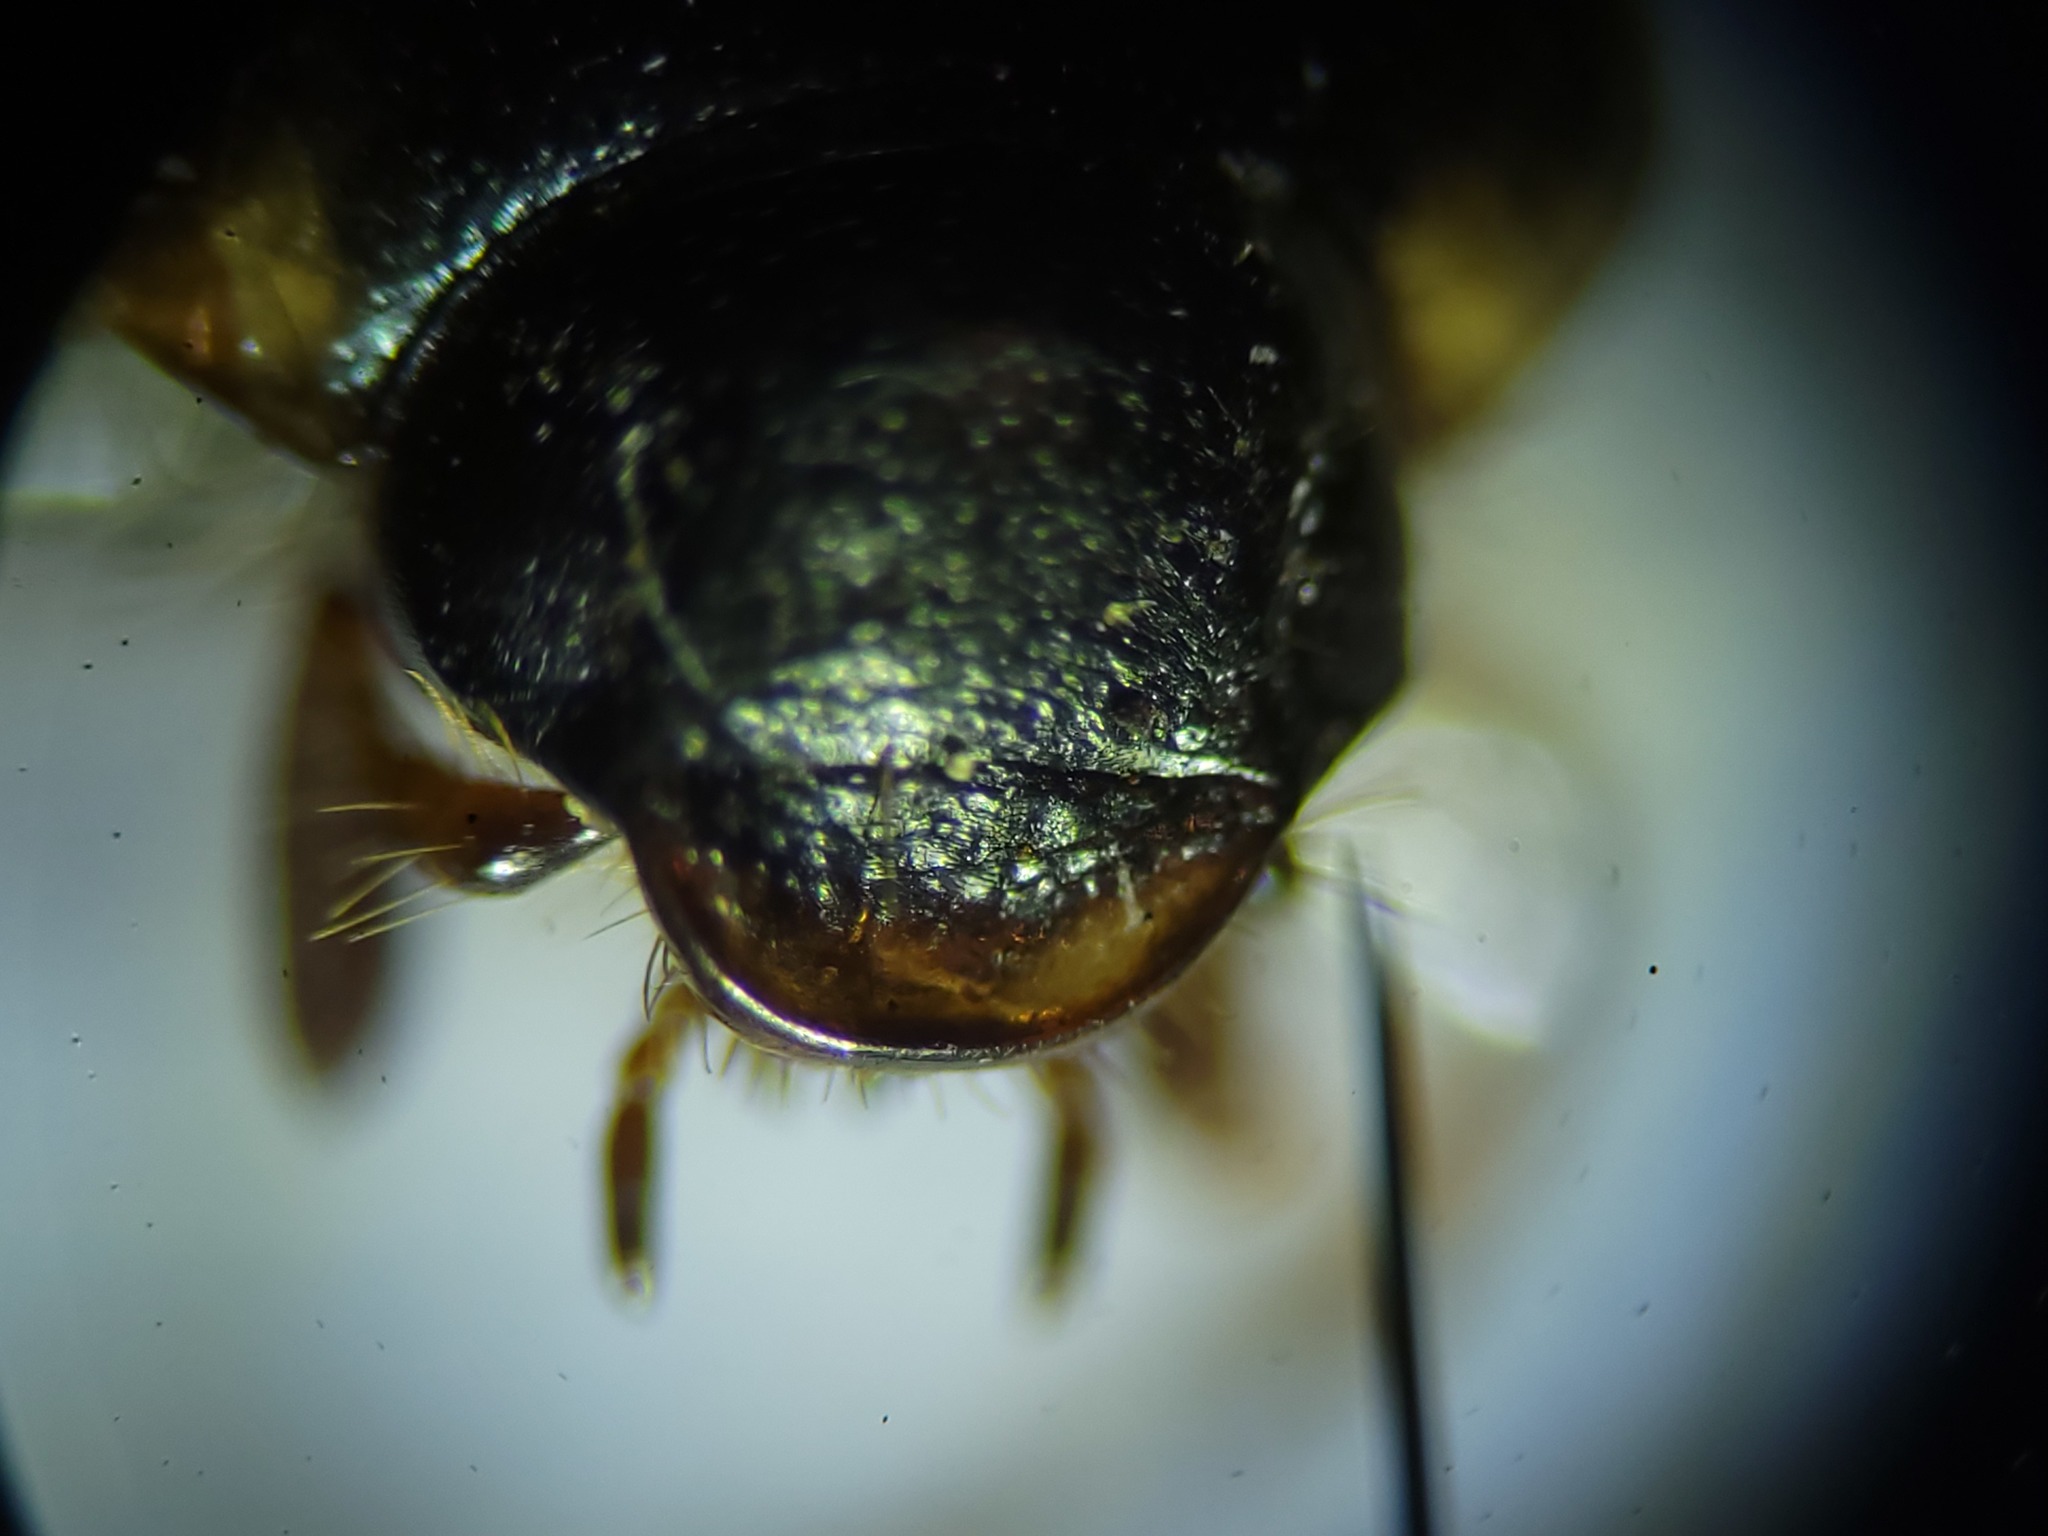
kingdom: Animalia
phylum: Arthropoda
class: Insecta
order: Coleoptera
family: Scarabaeidae
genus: Paranomala
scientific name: Paranomala semilivida
